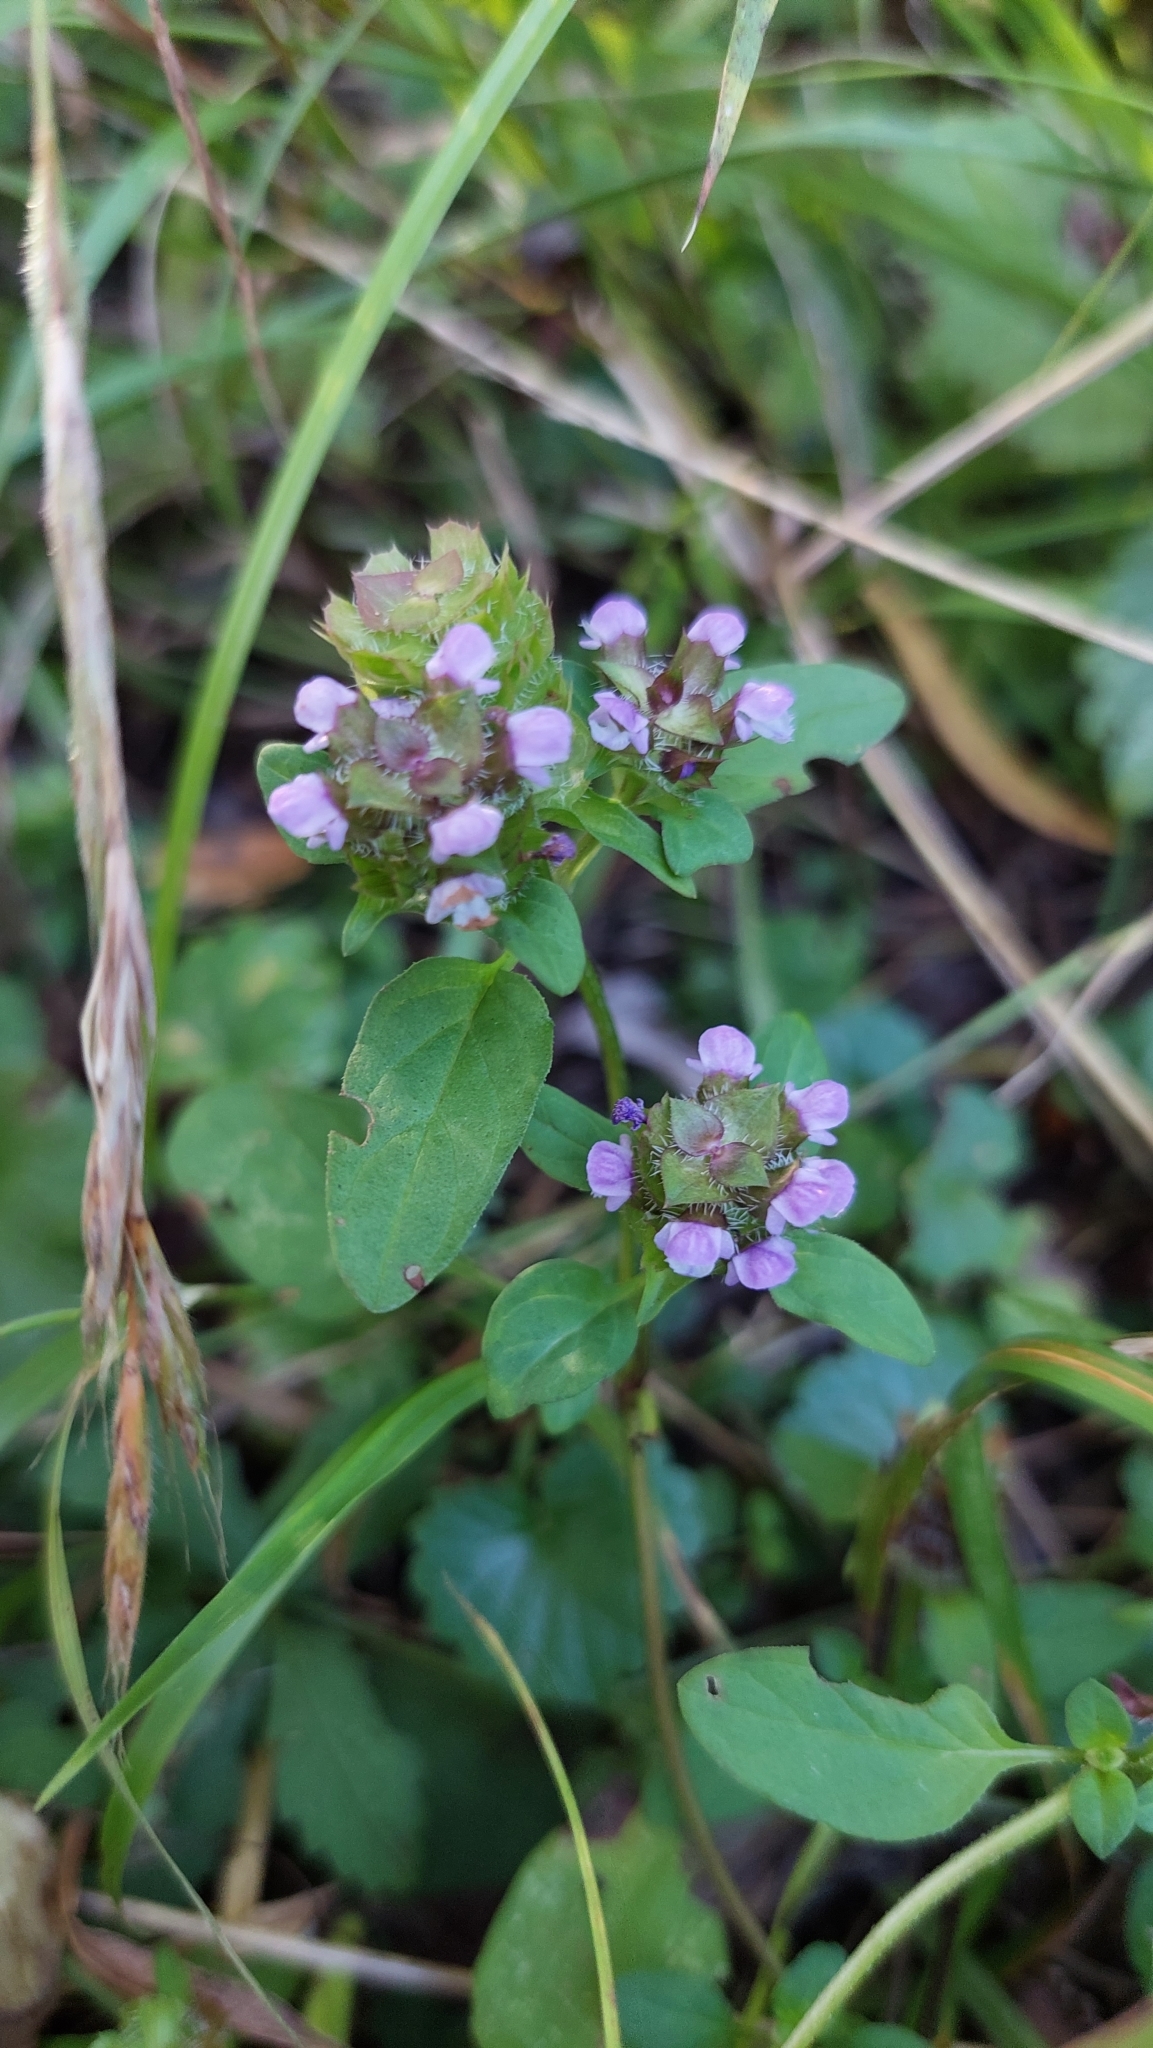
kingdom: Plantae
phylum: Tracheophyta
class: Magnoliopsida
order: Lamiales
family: Lamiaceae
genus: Prunella
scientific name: Prunella vulgaris
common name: Heal-all
